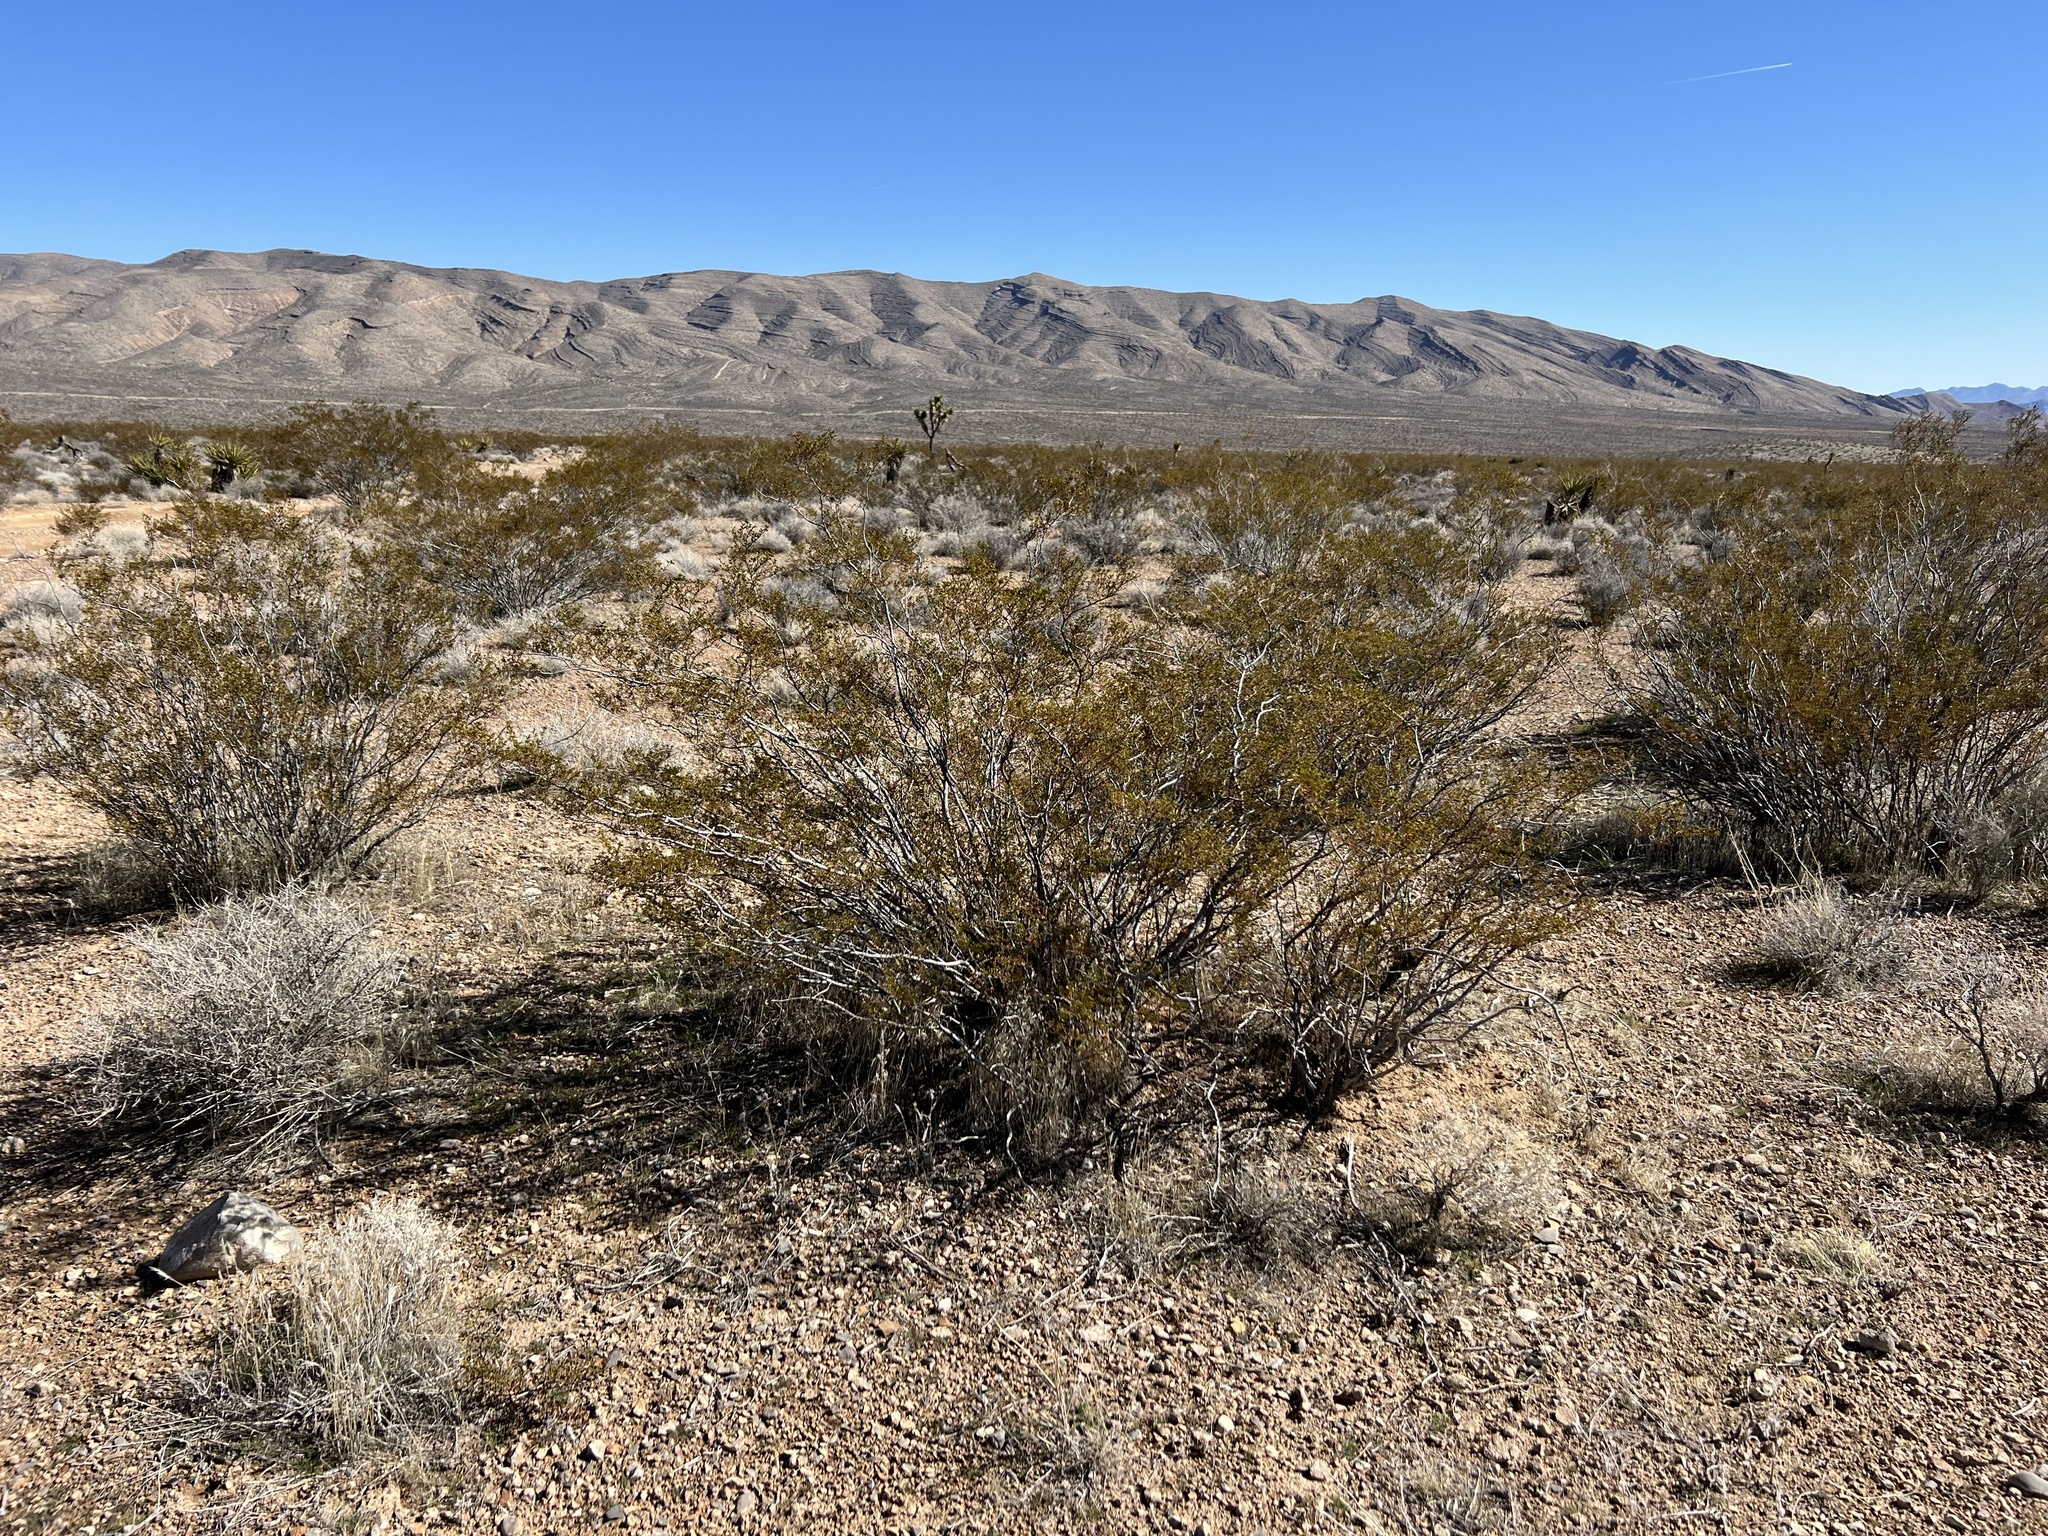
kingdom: Plantae
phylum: Tracheophyta
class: Magnoliopsida
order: Zygophyllales
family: Zygophyllaceae
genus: Larrea
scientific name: Larrea tridentata
